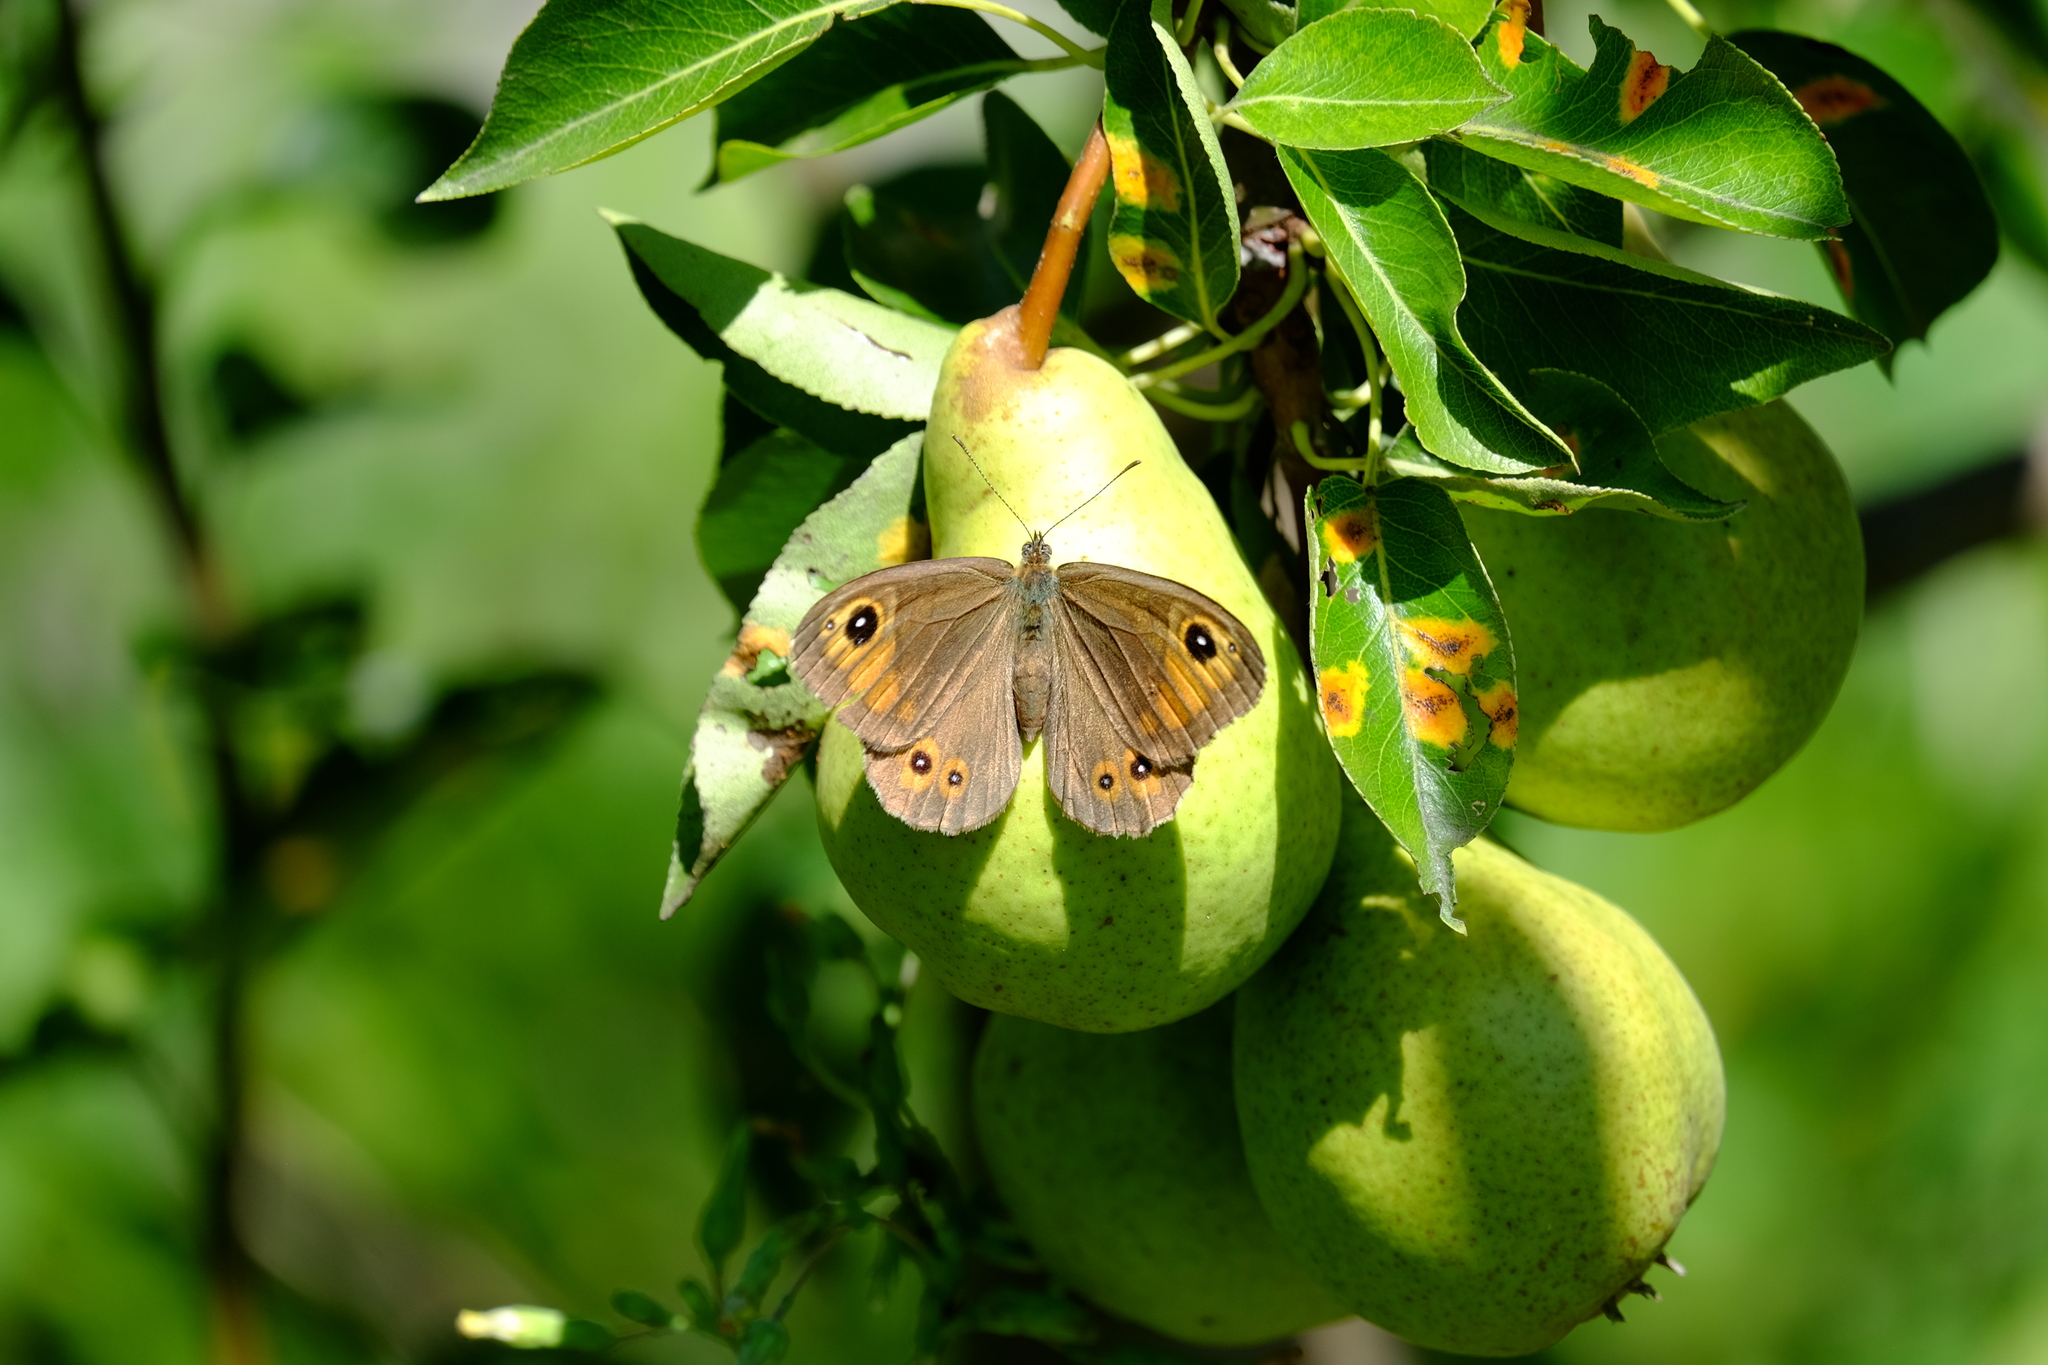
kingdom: Animalia
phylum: Arthropoda
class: Insecta
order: Lepidoptera
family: Nymphalidae
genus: Pararge
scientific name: Pararge Lasiommata maera
